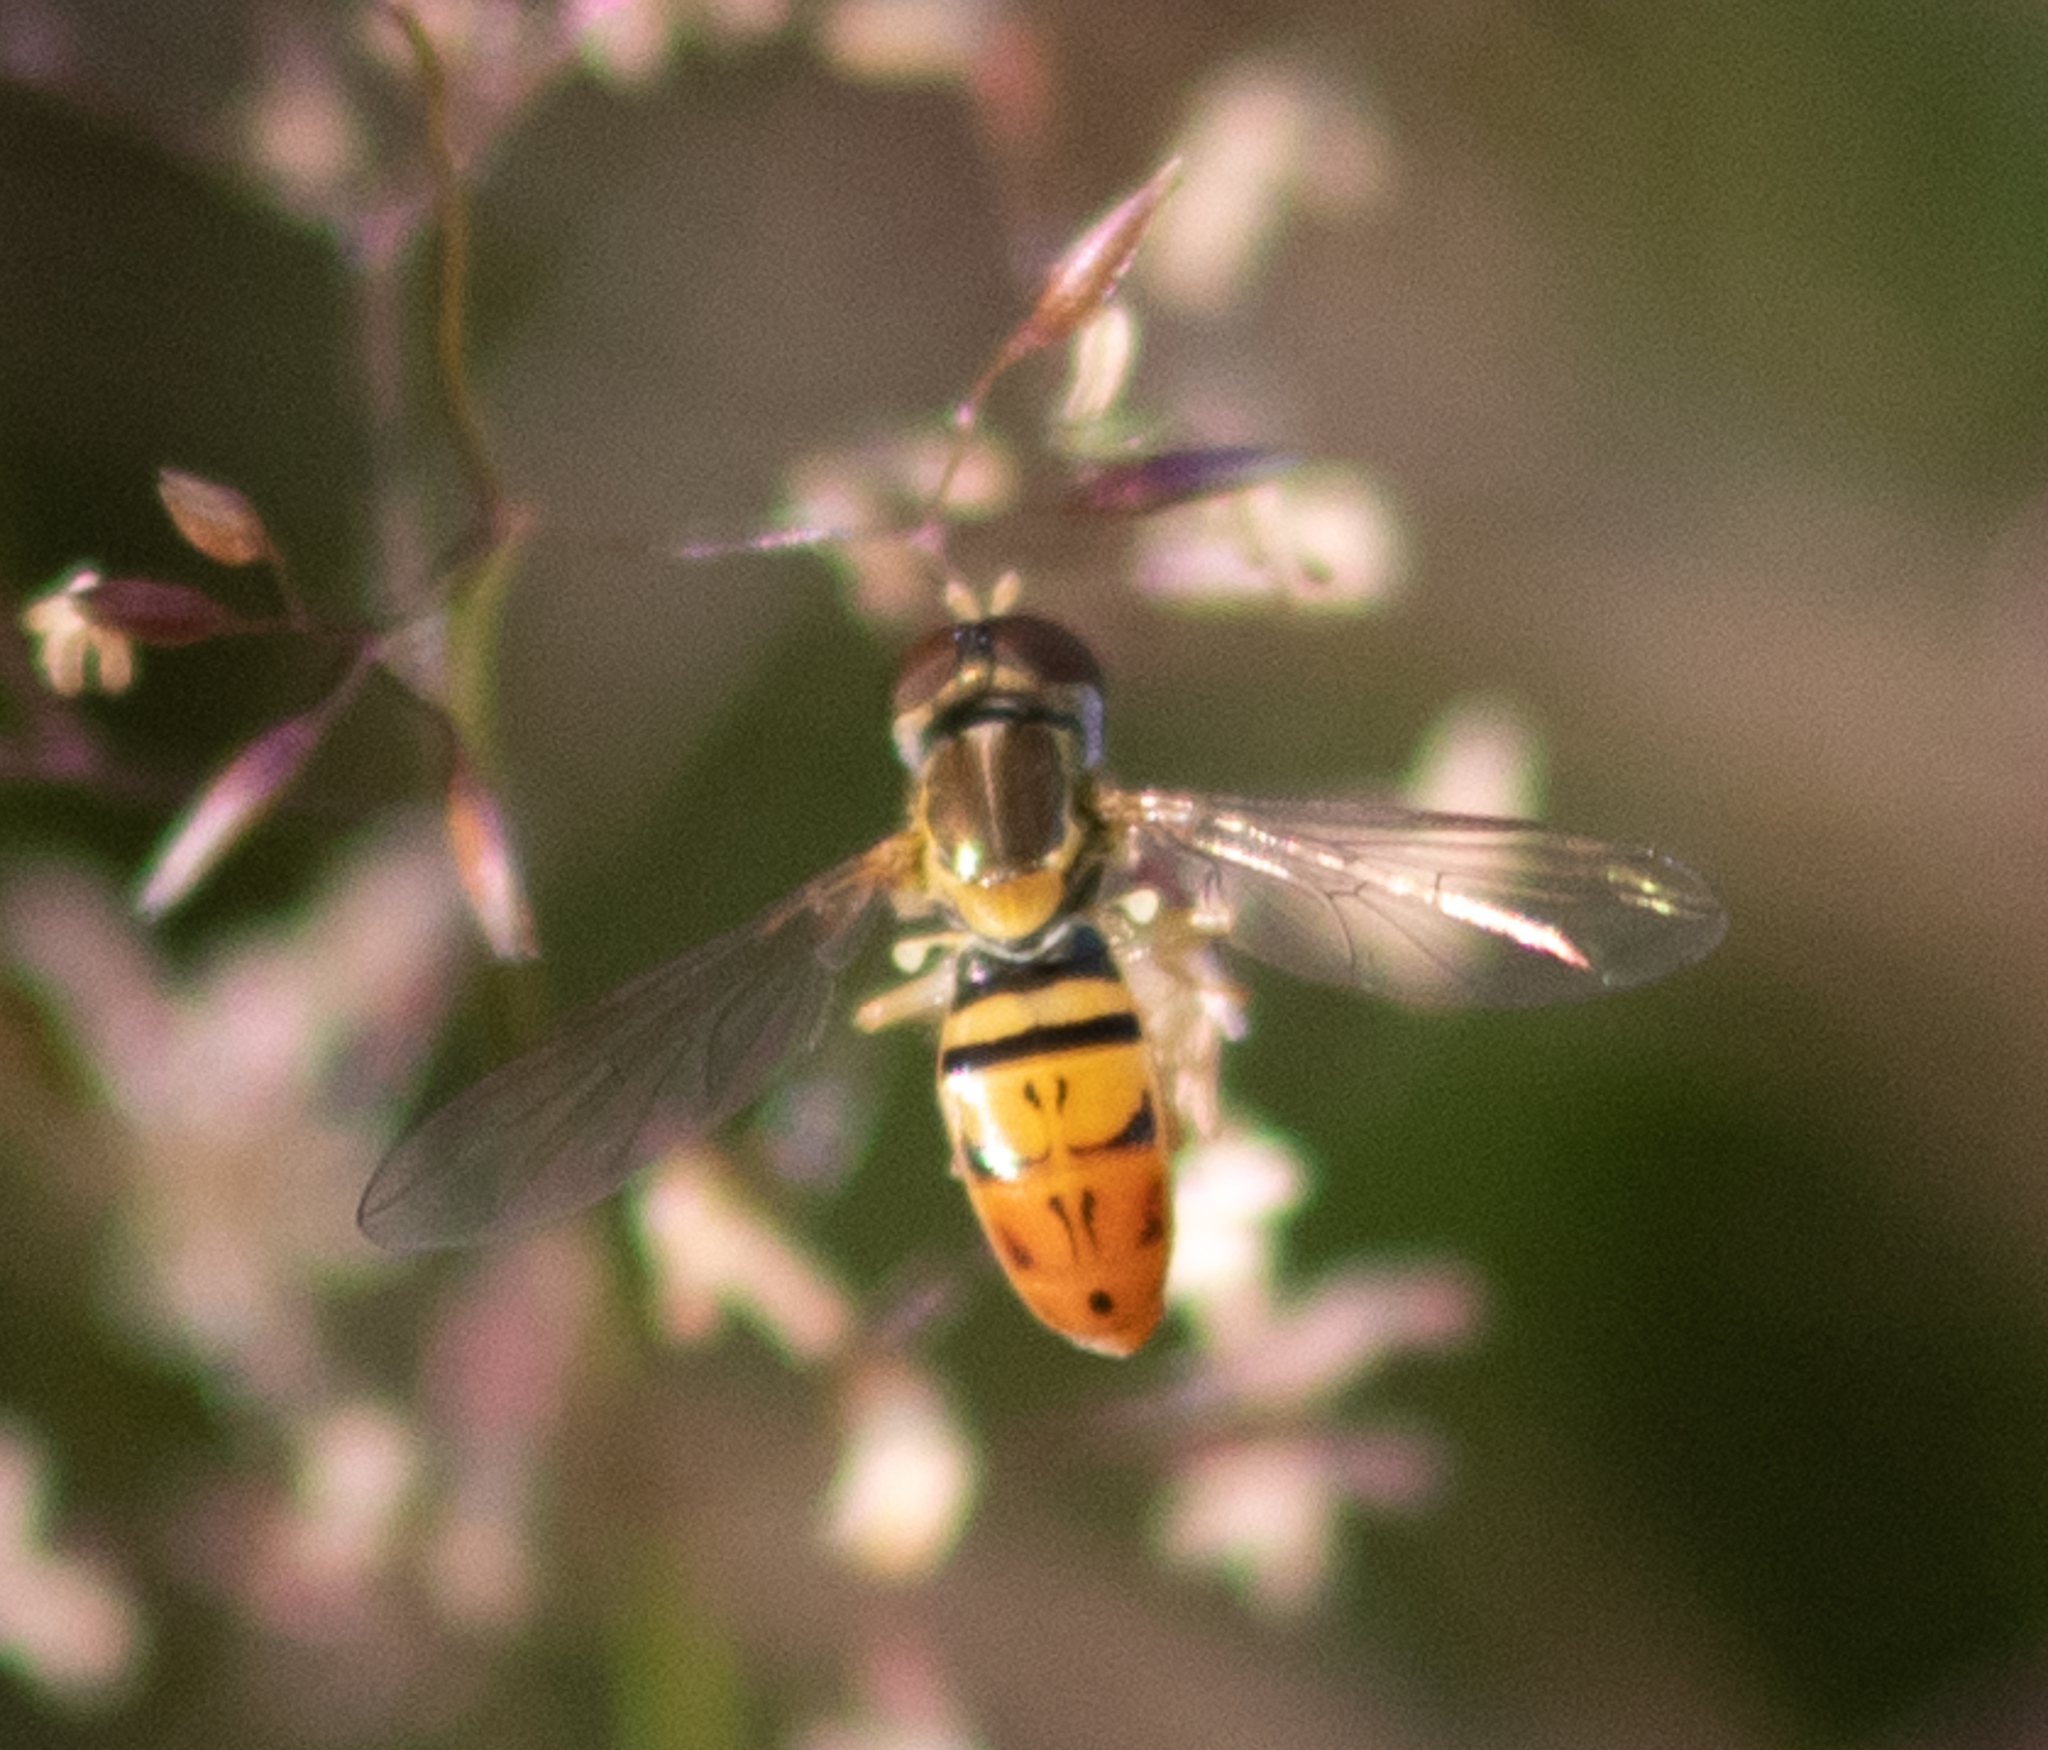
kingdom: Animalia
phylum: Arthropoda
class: Insecta
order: Diptera
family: Syrphidae
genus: Toxomerus
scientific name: Toxomerus marginatus
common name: Syrphid fly
